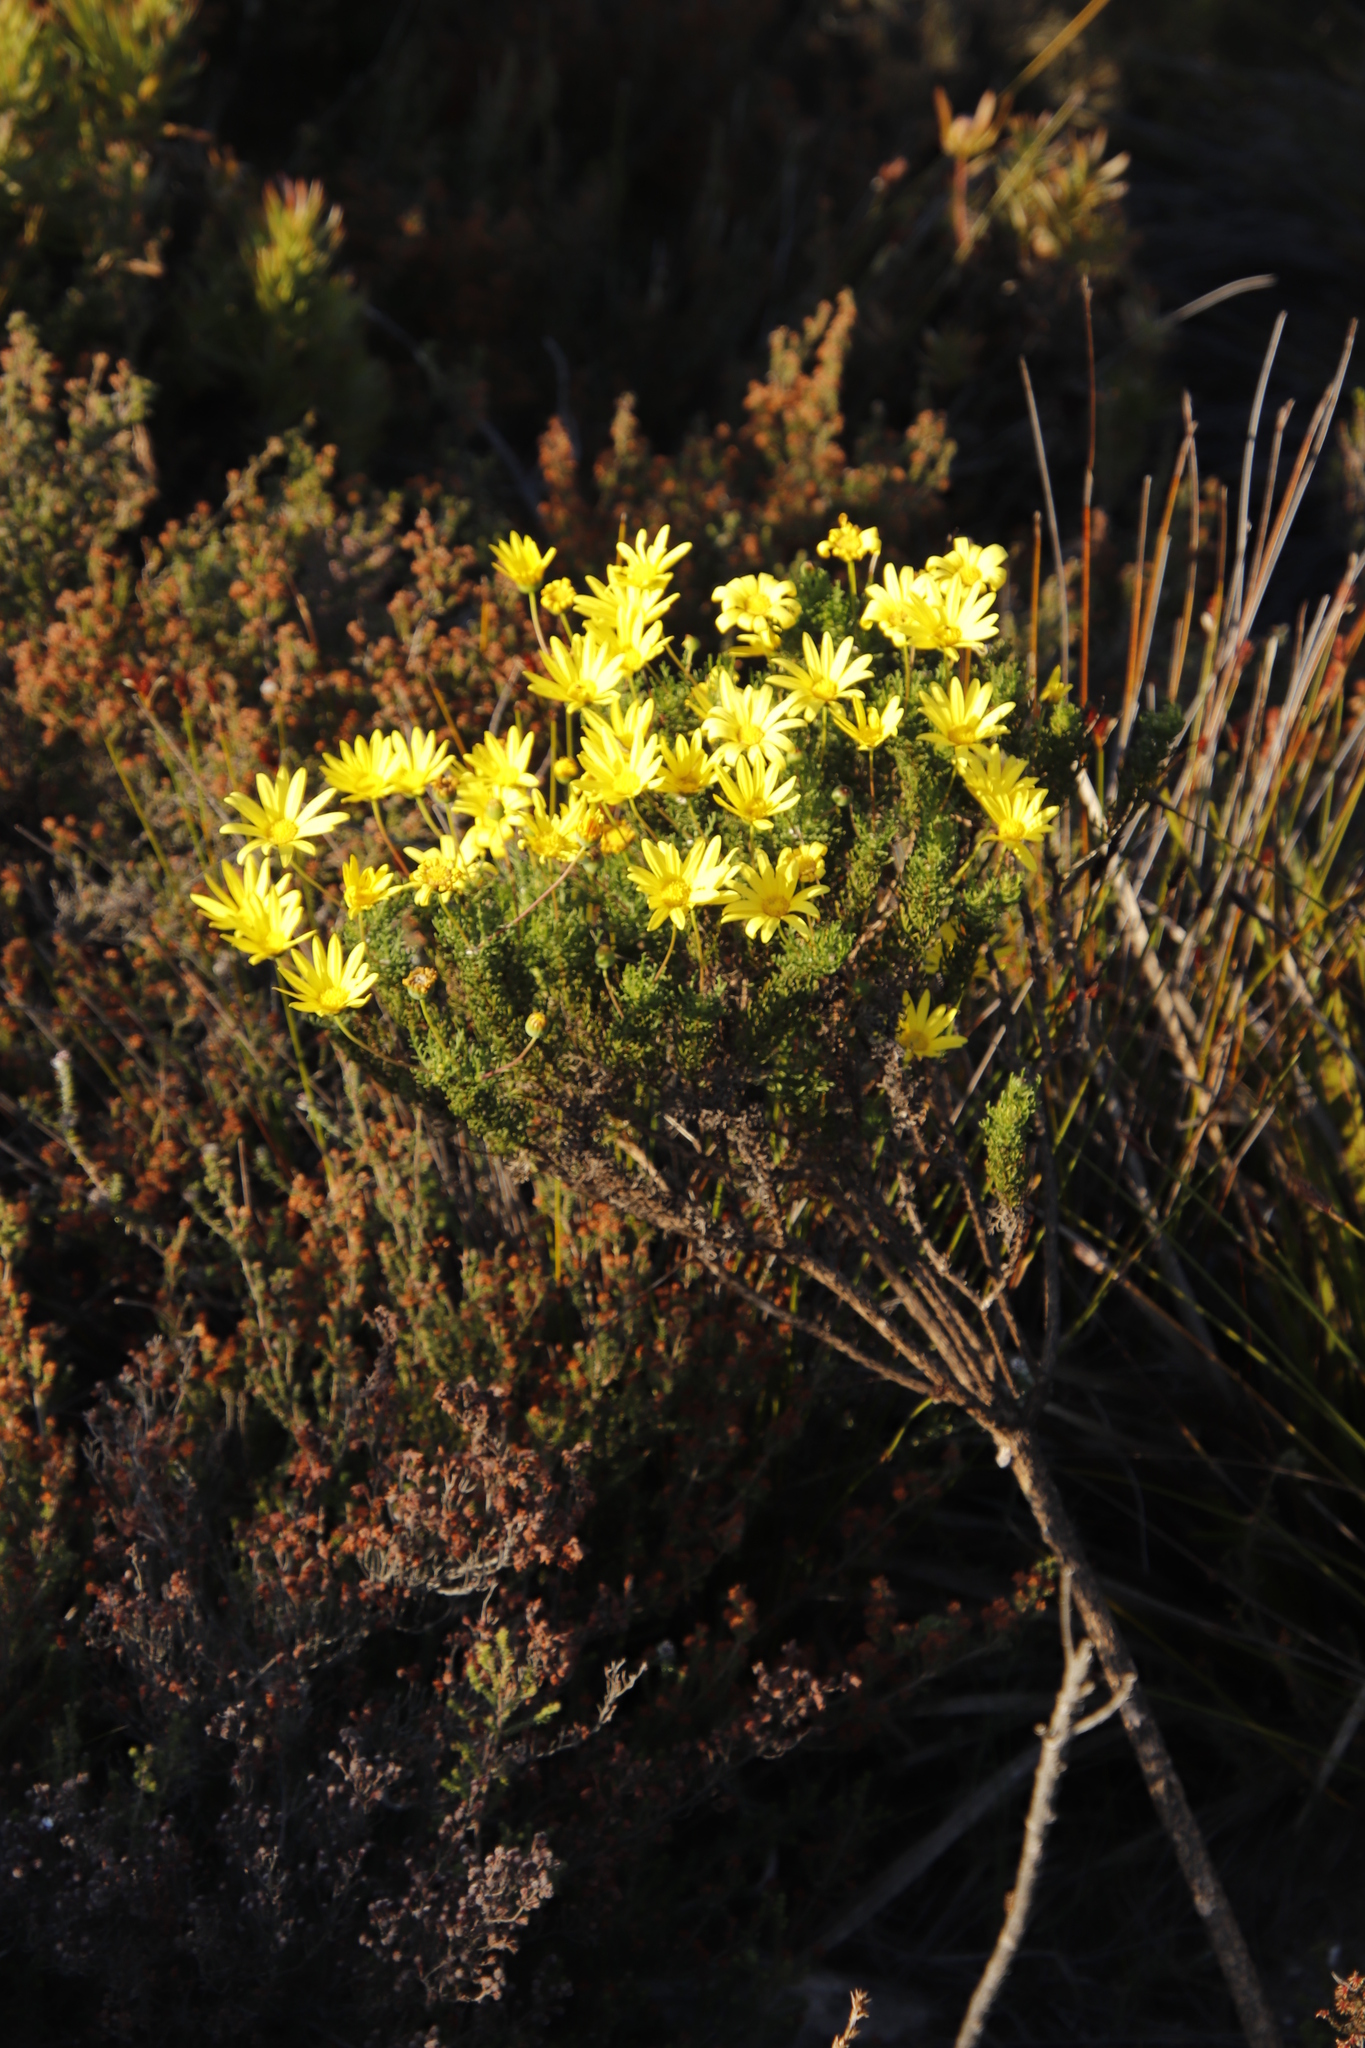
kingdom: Plantae
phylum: Tracheophyta
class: Magnoliopsida
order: Asterales
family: Asteraceae
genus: Euryops
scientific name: Euryops abrotanifolius
